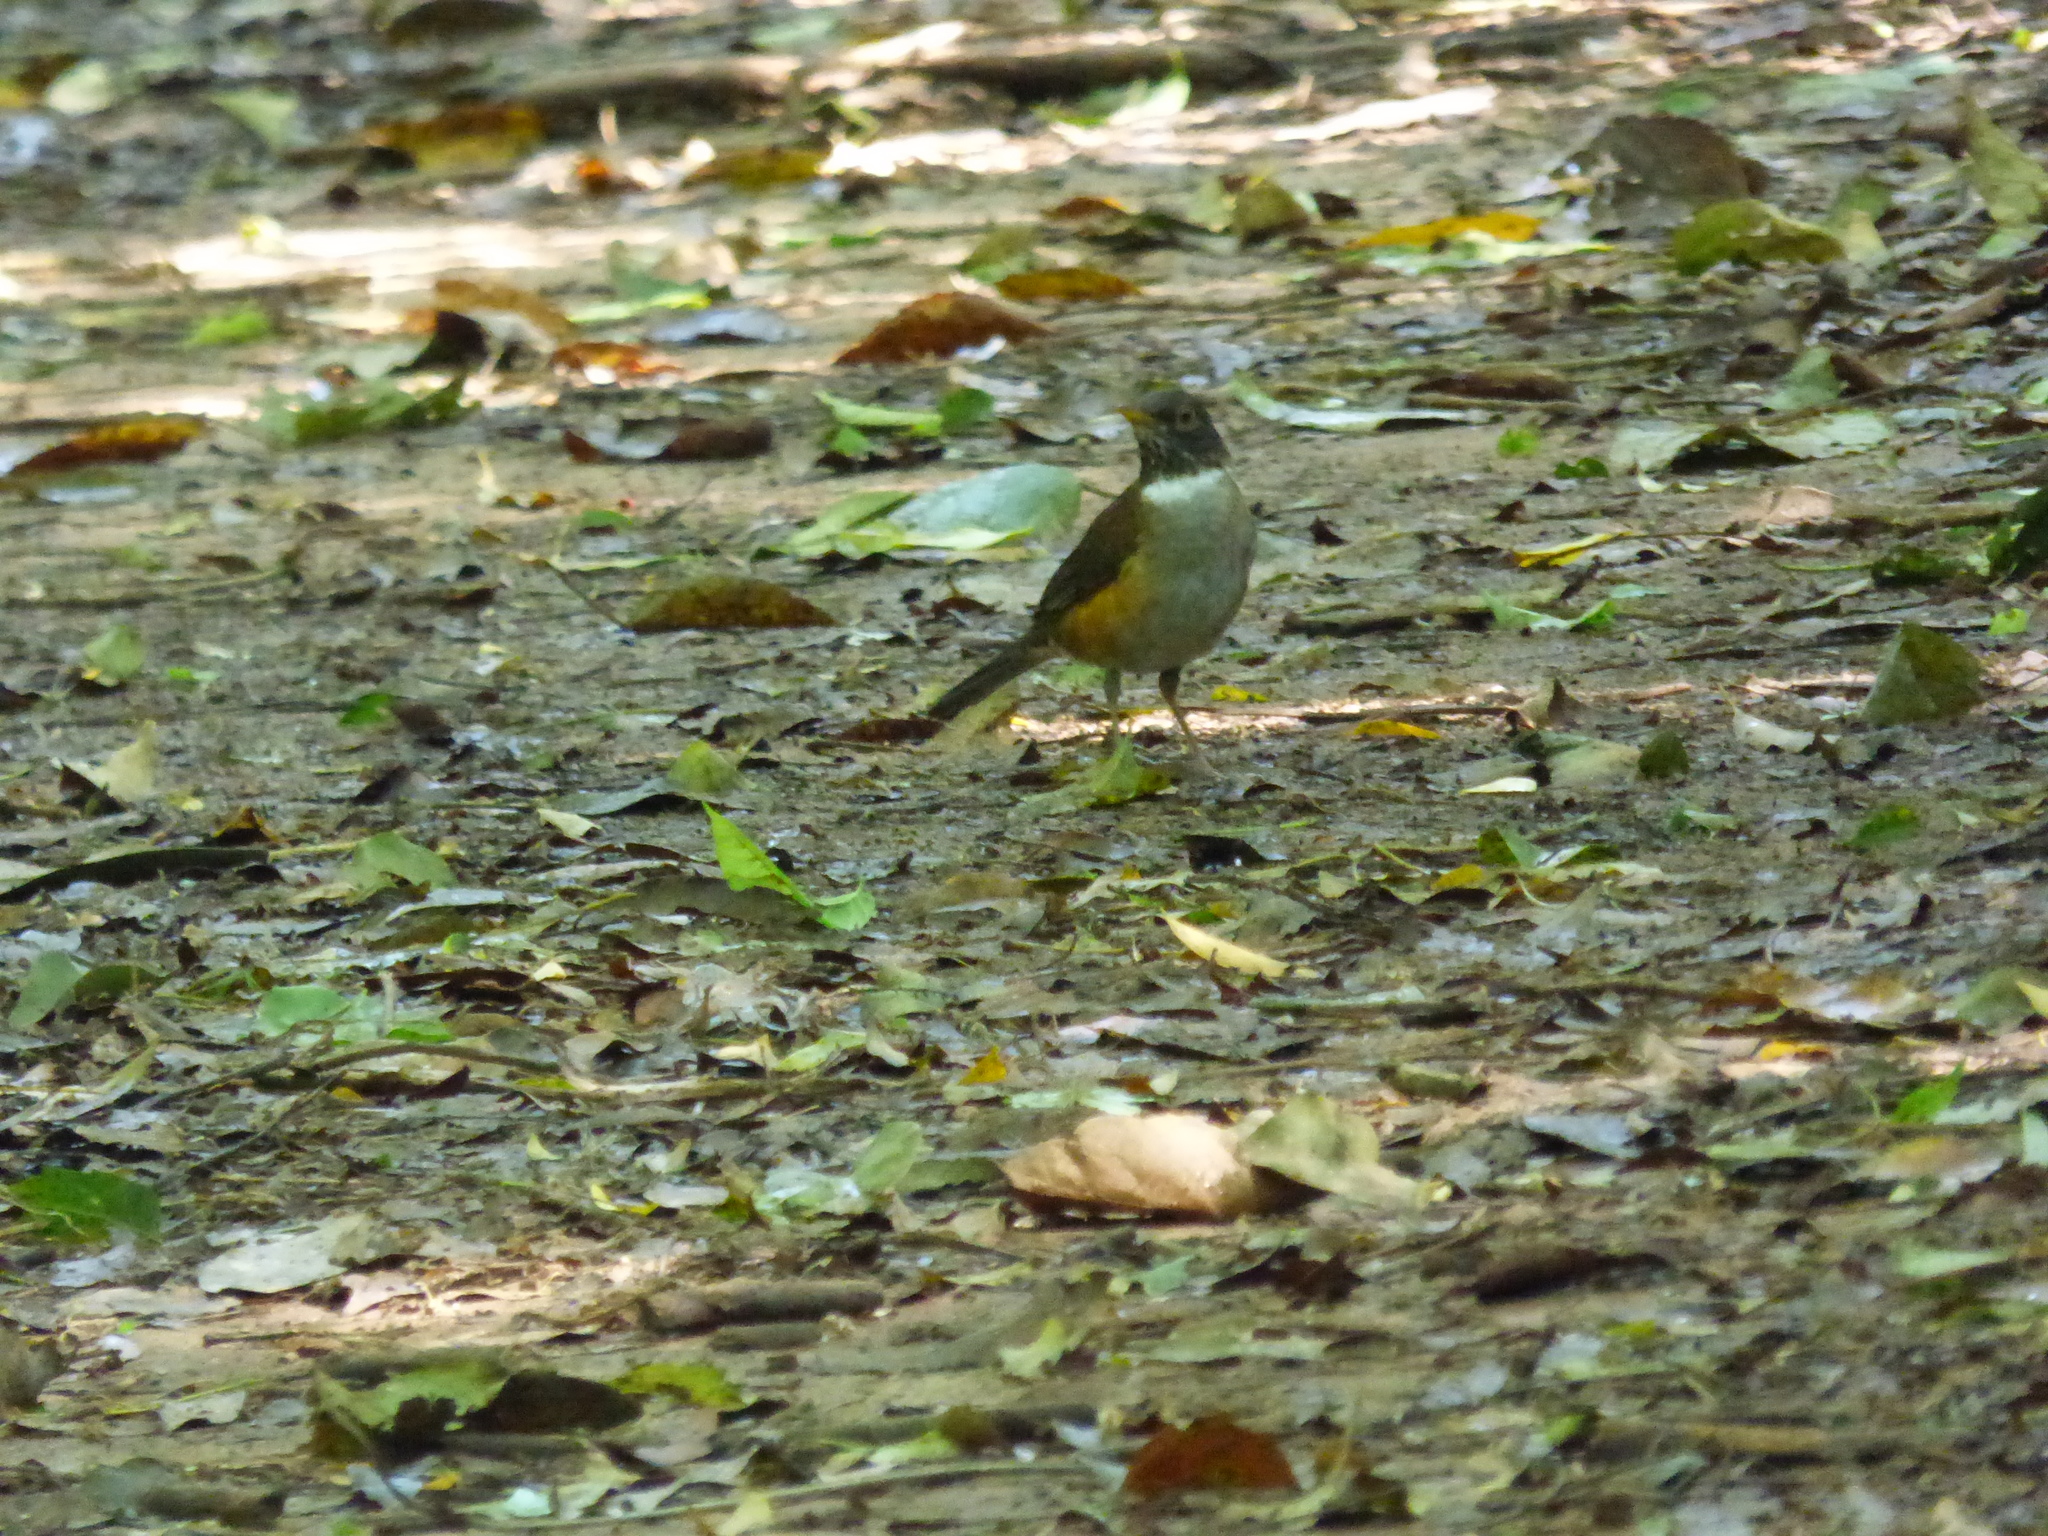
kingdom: Animalia
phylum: Chordata
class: Aves
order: Passeriformes
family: Turdidae
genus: Turdus
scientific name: Turdus albicollis
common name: White-necked thrush
